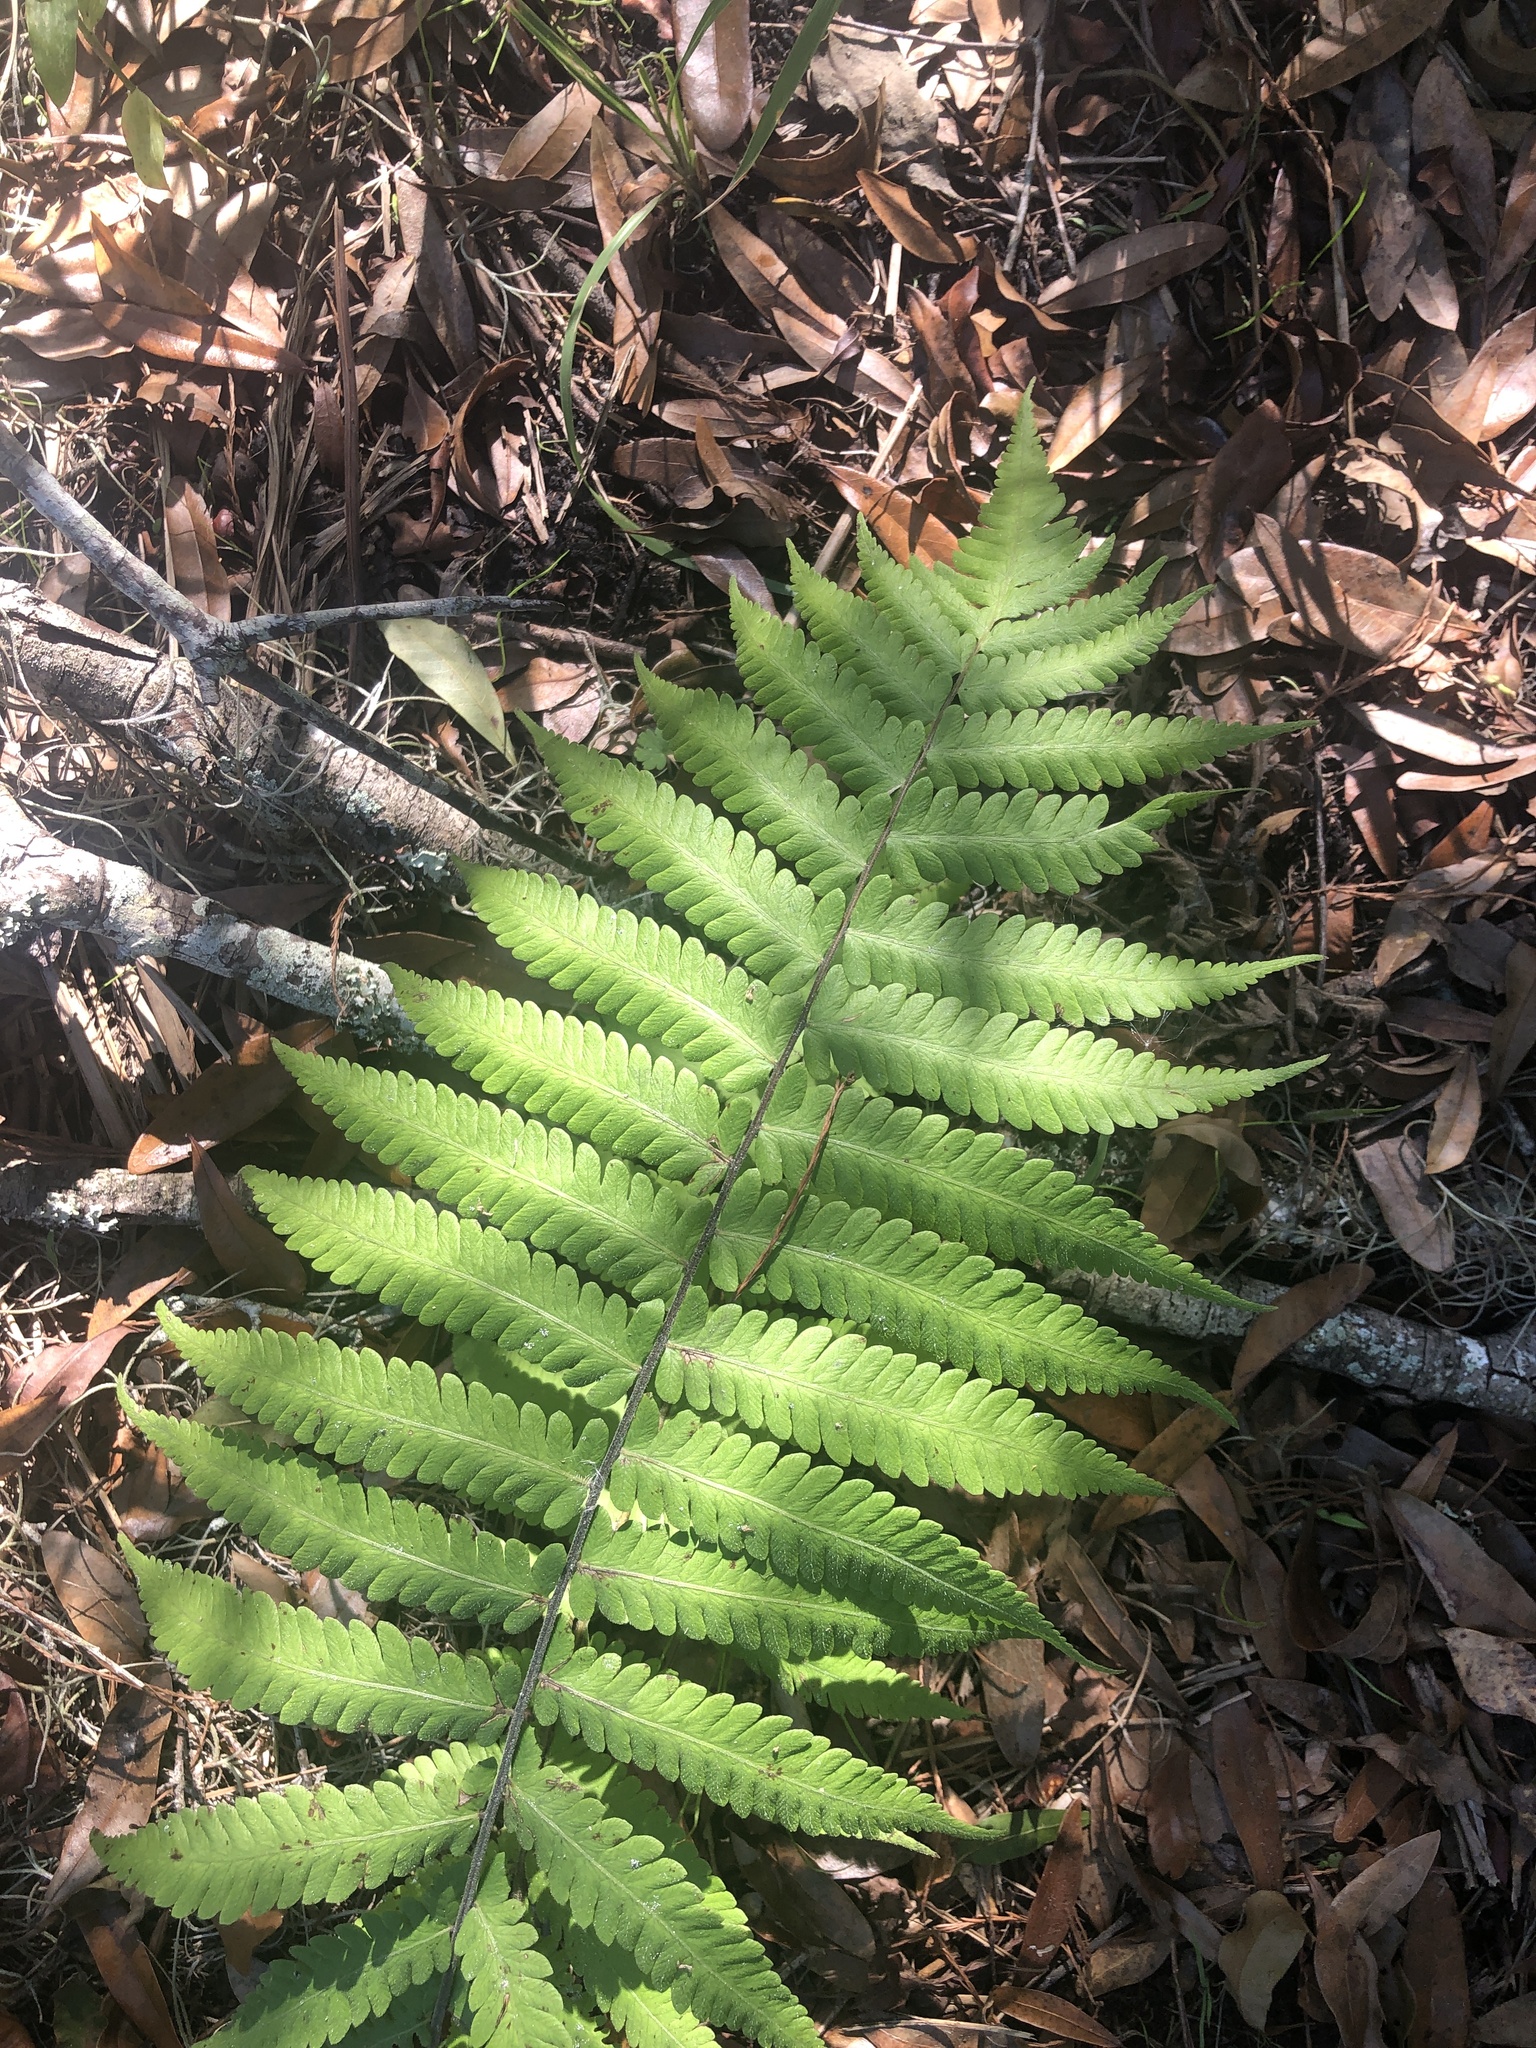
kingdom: Plantae
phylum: Tracheophyta
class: Polypodiopsida
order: Polypodiales
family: Thelypteridaceae
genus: Christella
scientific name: Christella dentata
